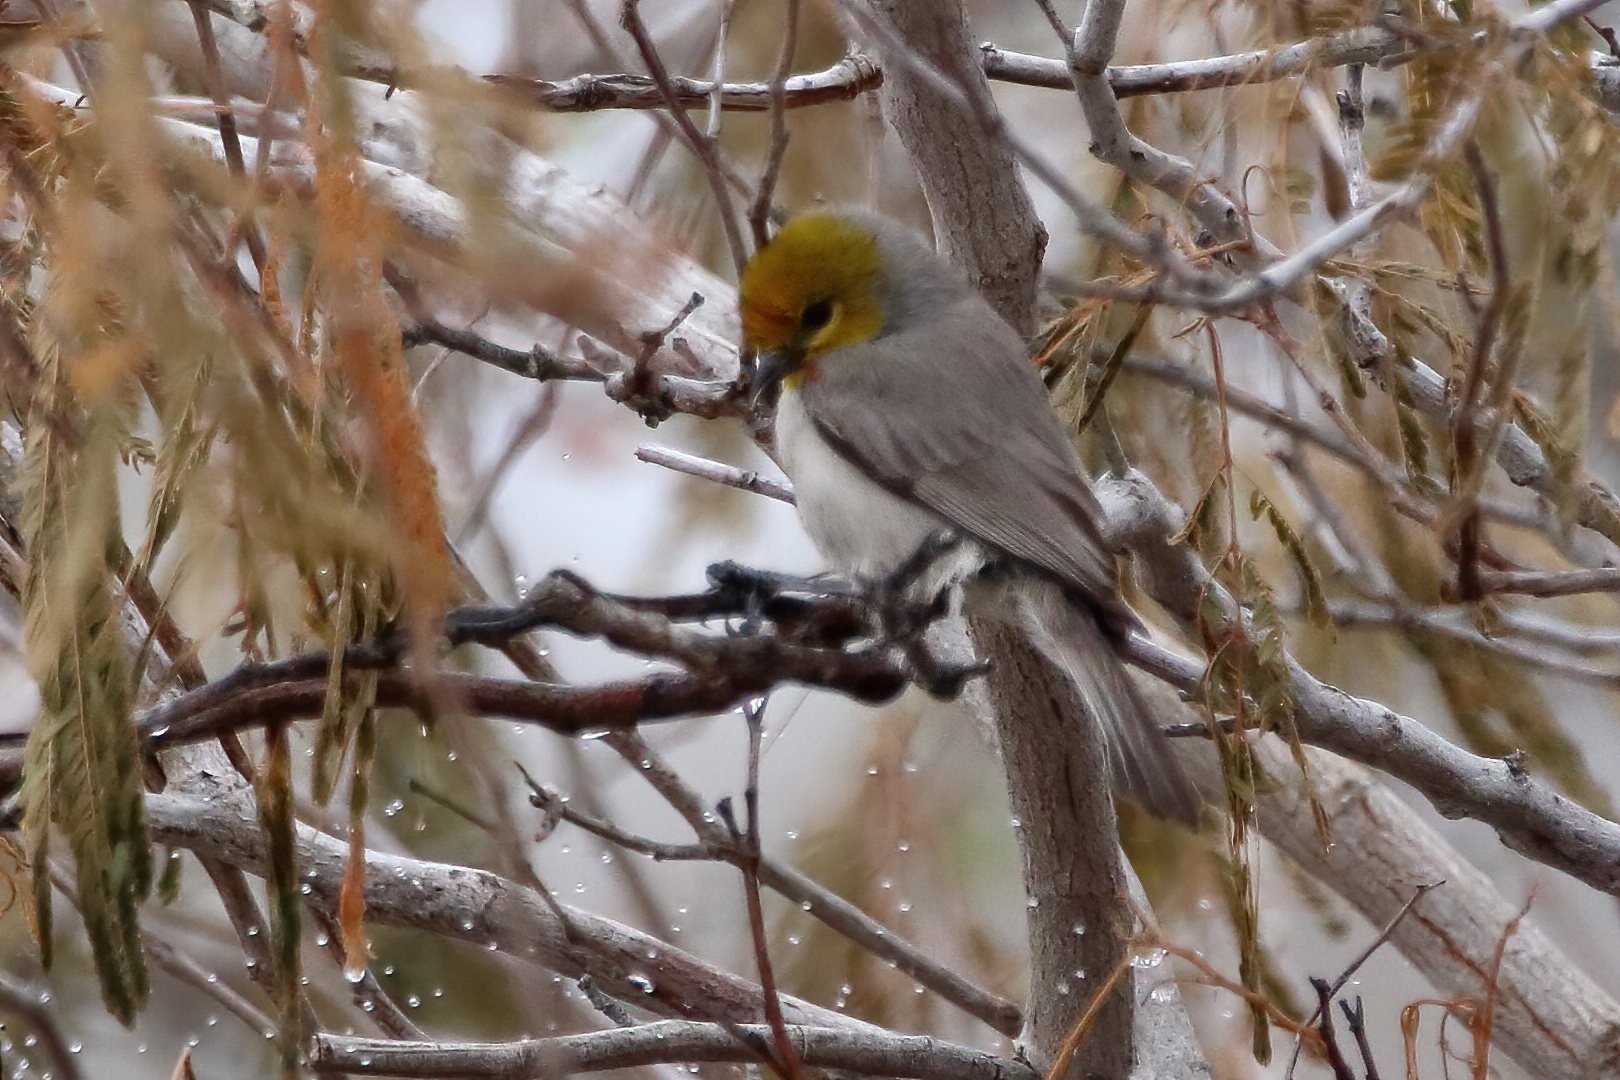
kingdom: Animalia
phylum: Chordata
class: Aves
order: Passeriformes
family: Remizidae
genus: Auriparus
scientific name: Auriparus flaviceps
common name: Verdin
